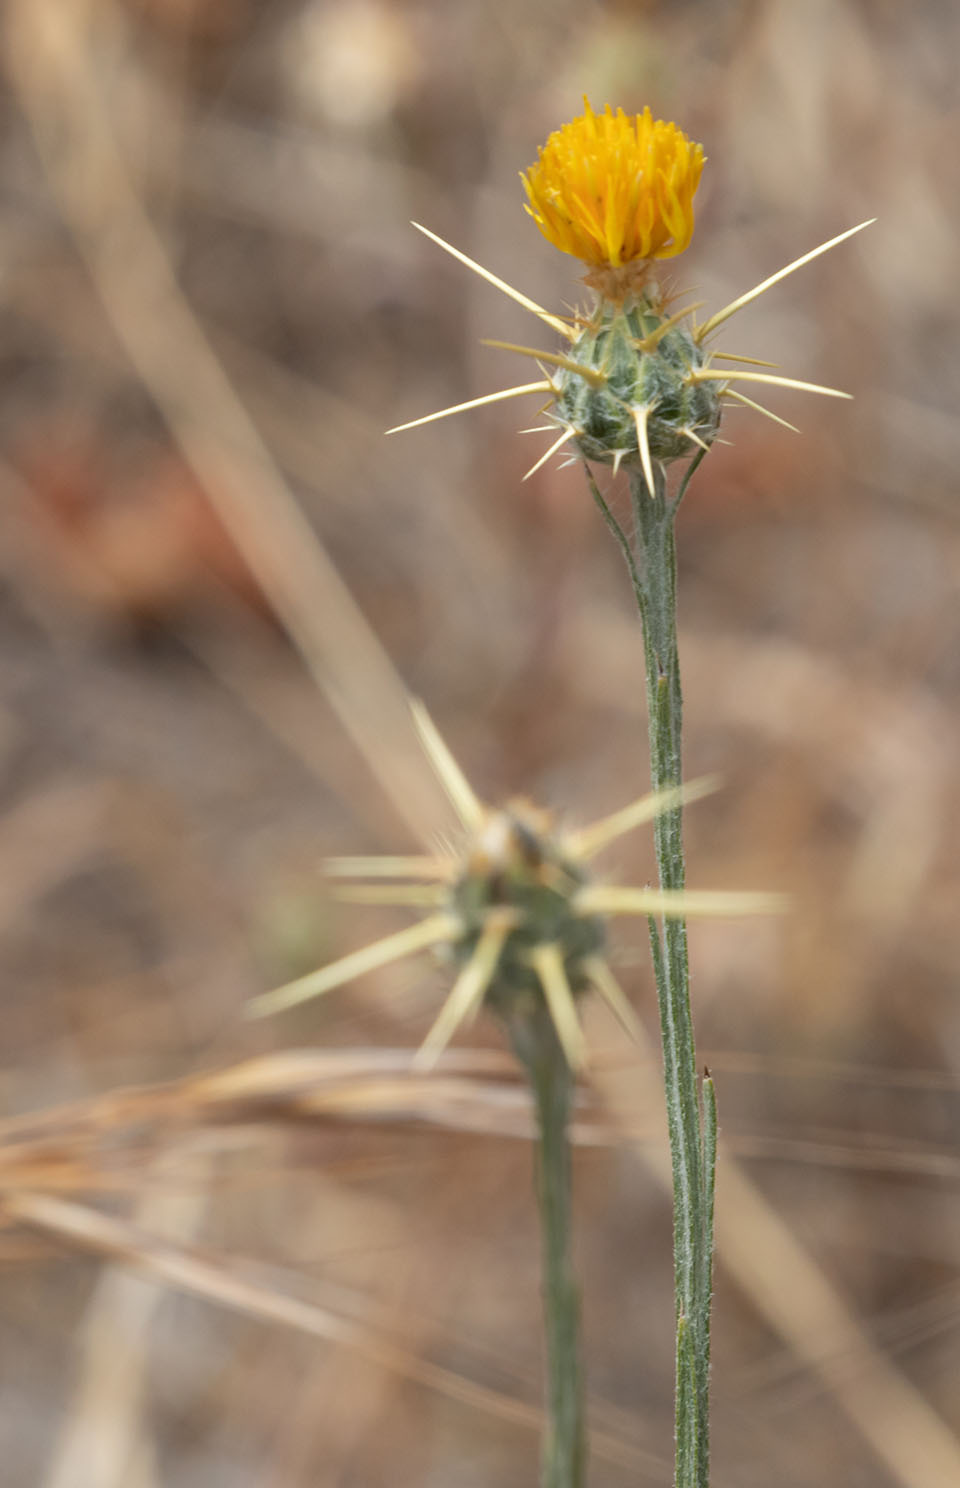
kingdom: Plantae
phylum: Tracheophyta
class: Magnoliopsida
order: Asterales
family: Asteraceae
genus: Centaurea
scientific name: Centaurea solstitialis
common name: Yellow star-thistle
